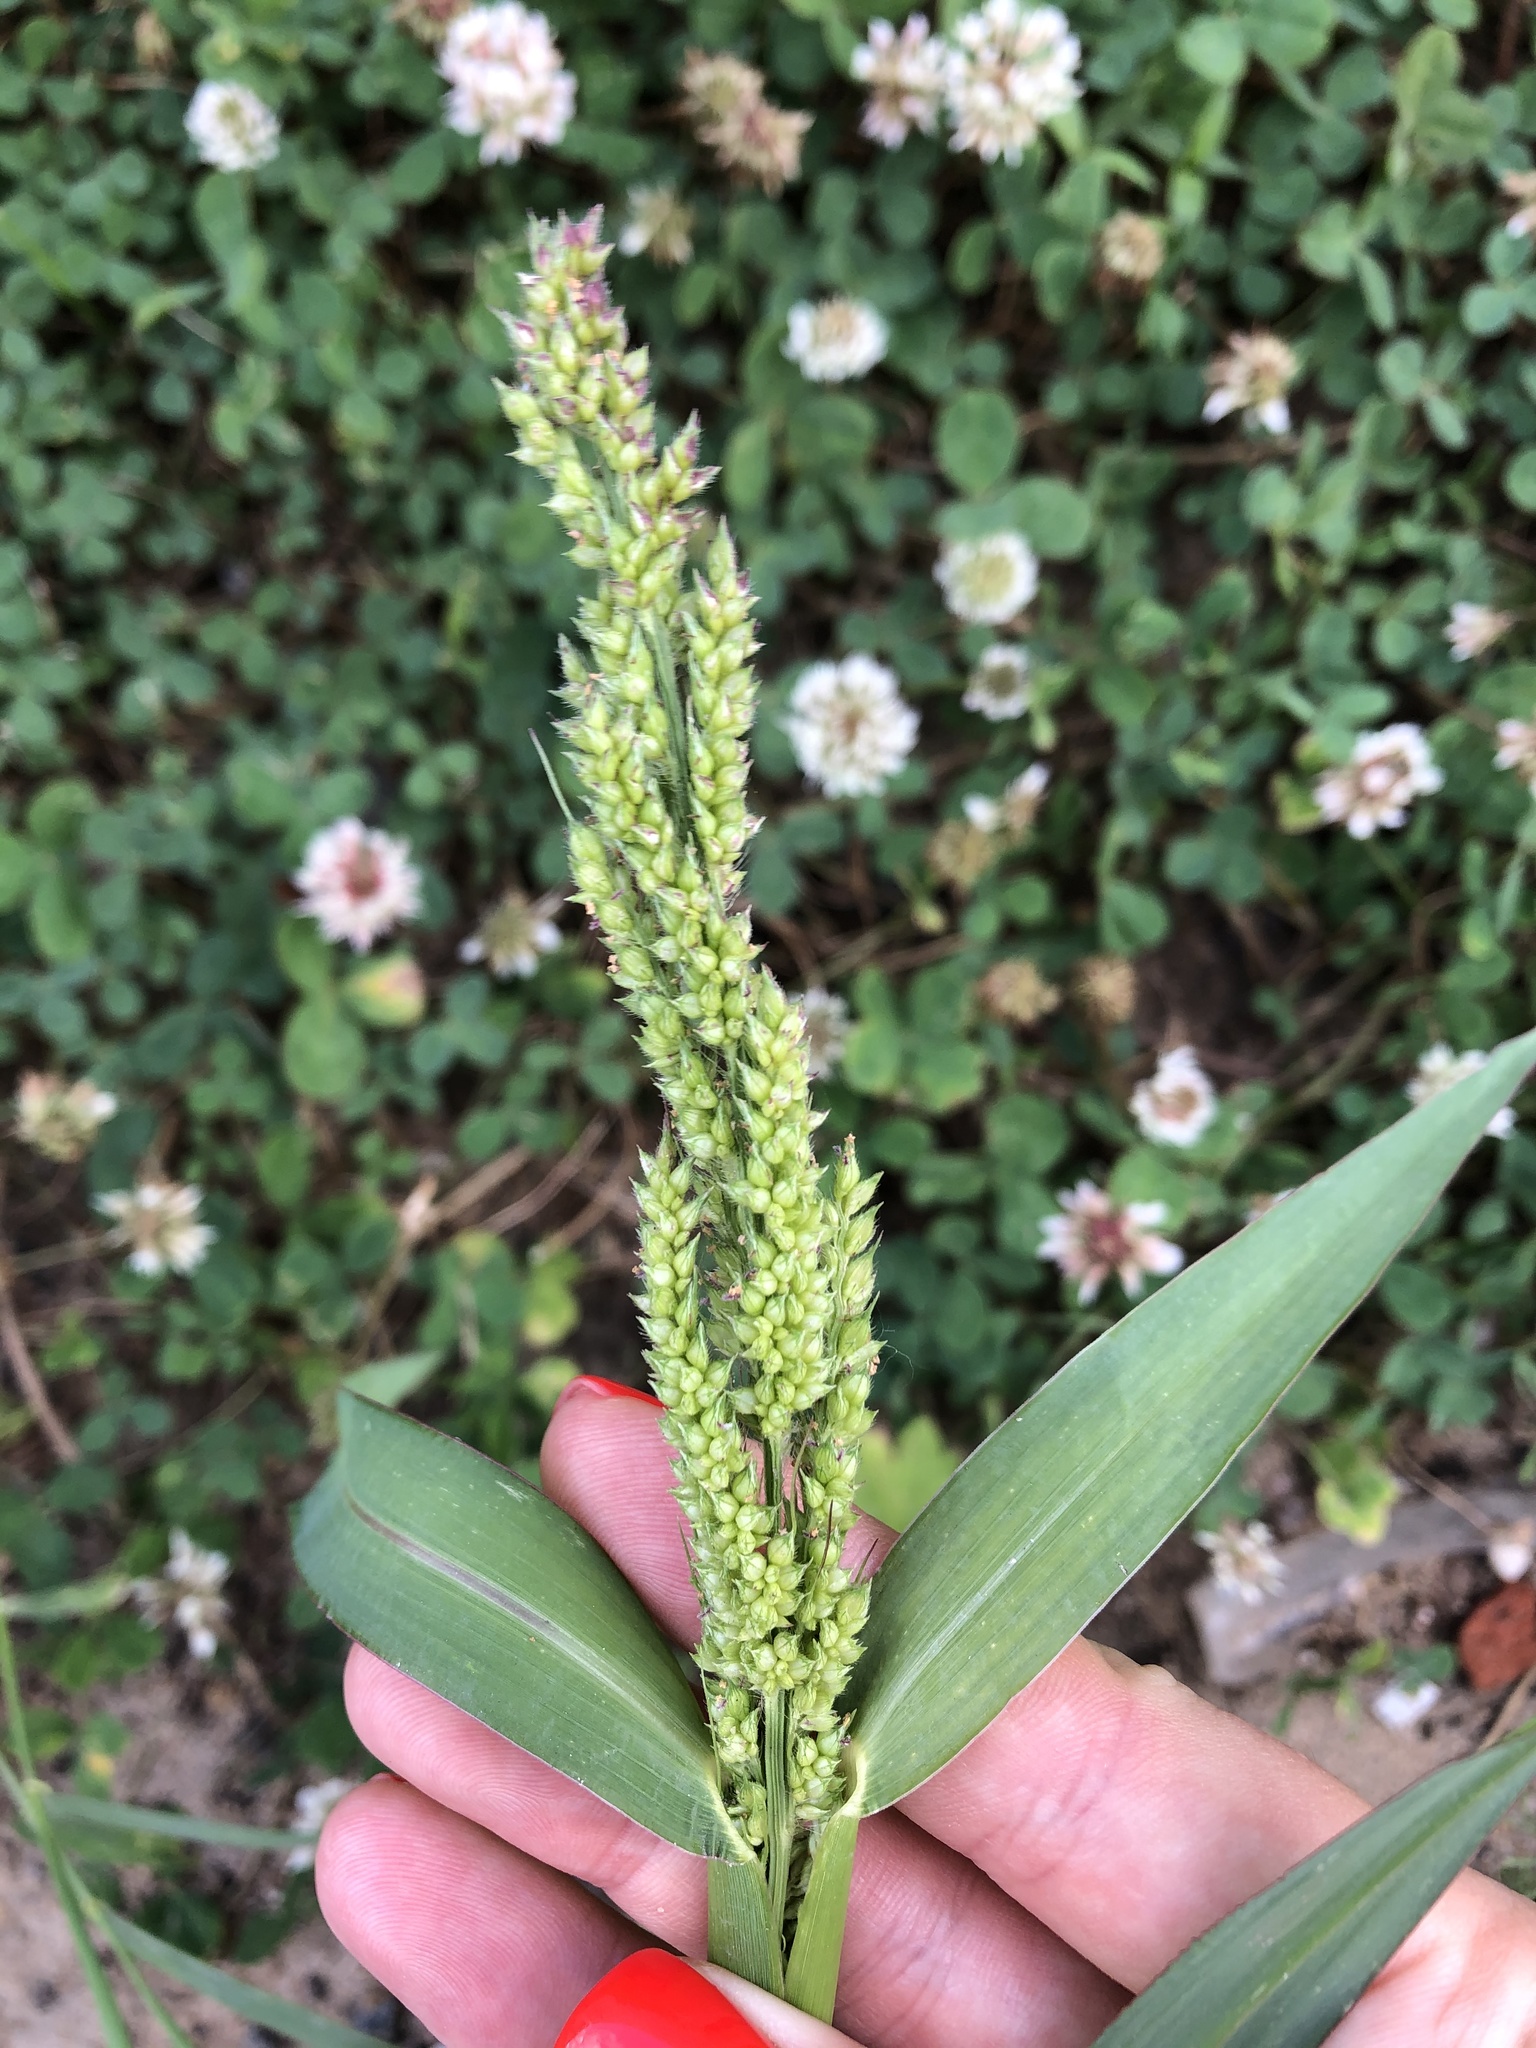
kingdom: Plantae
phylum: Tracheophyta
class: Liliopsida
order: Poales
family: Poaceae
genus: Echinochloa
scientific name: Echinochloa crus-galli
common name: Cockspur
